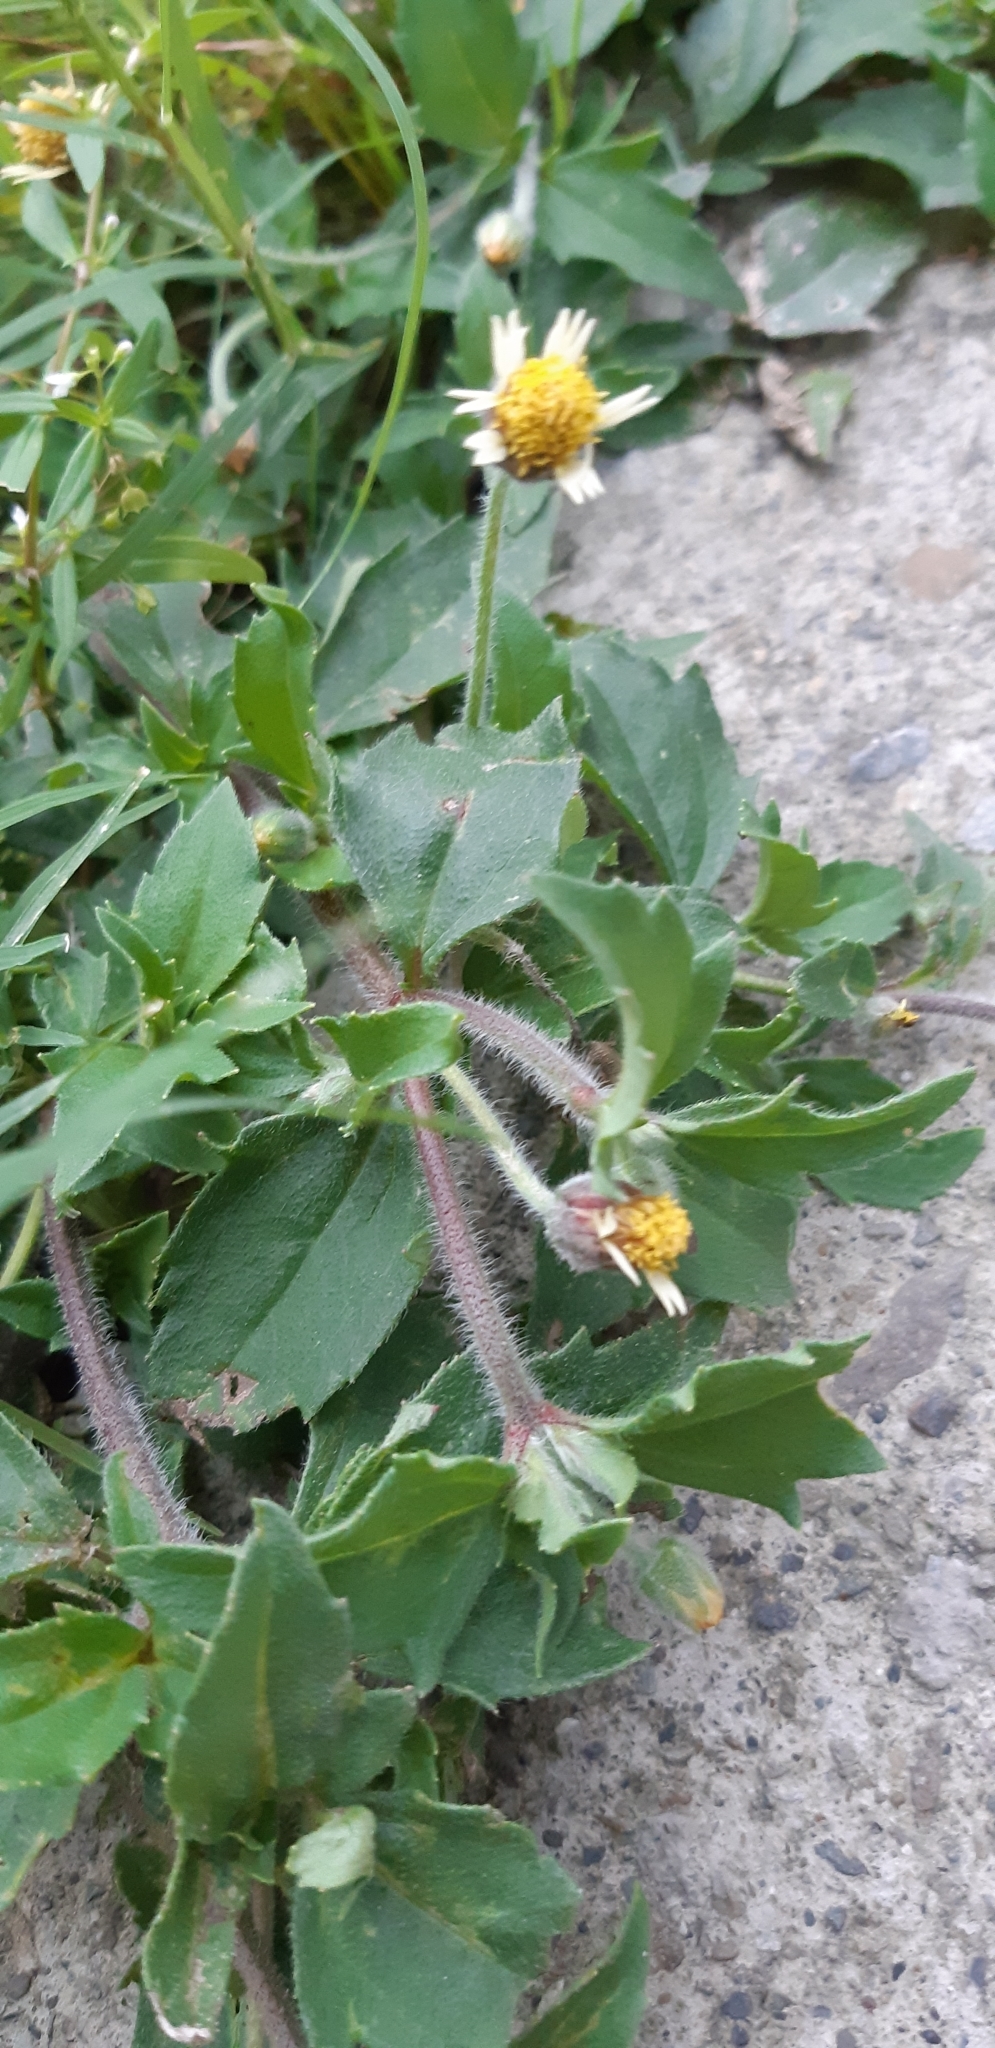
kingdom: Plantae
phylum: Tracheophyta
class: Magnoliopsida
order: Asterales
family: Asteraceae
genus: Tridax
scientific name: Tridax procumbens
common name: Coatbuttons
